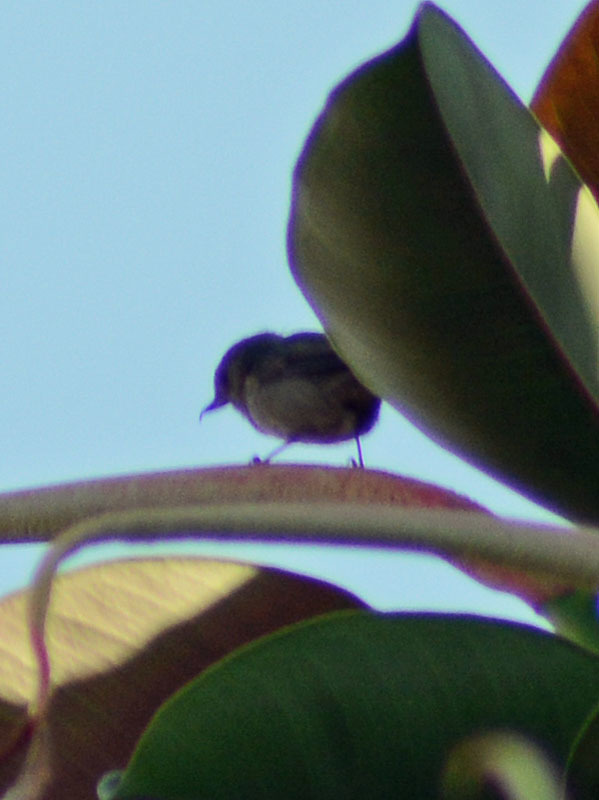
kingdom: Animalia
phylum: Chordata
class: Aves
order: Passeriformes
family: Thraupidae
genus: Diglossa
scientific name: Diglossa baritula
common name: Cinnamon-bellied flowerpiercer
